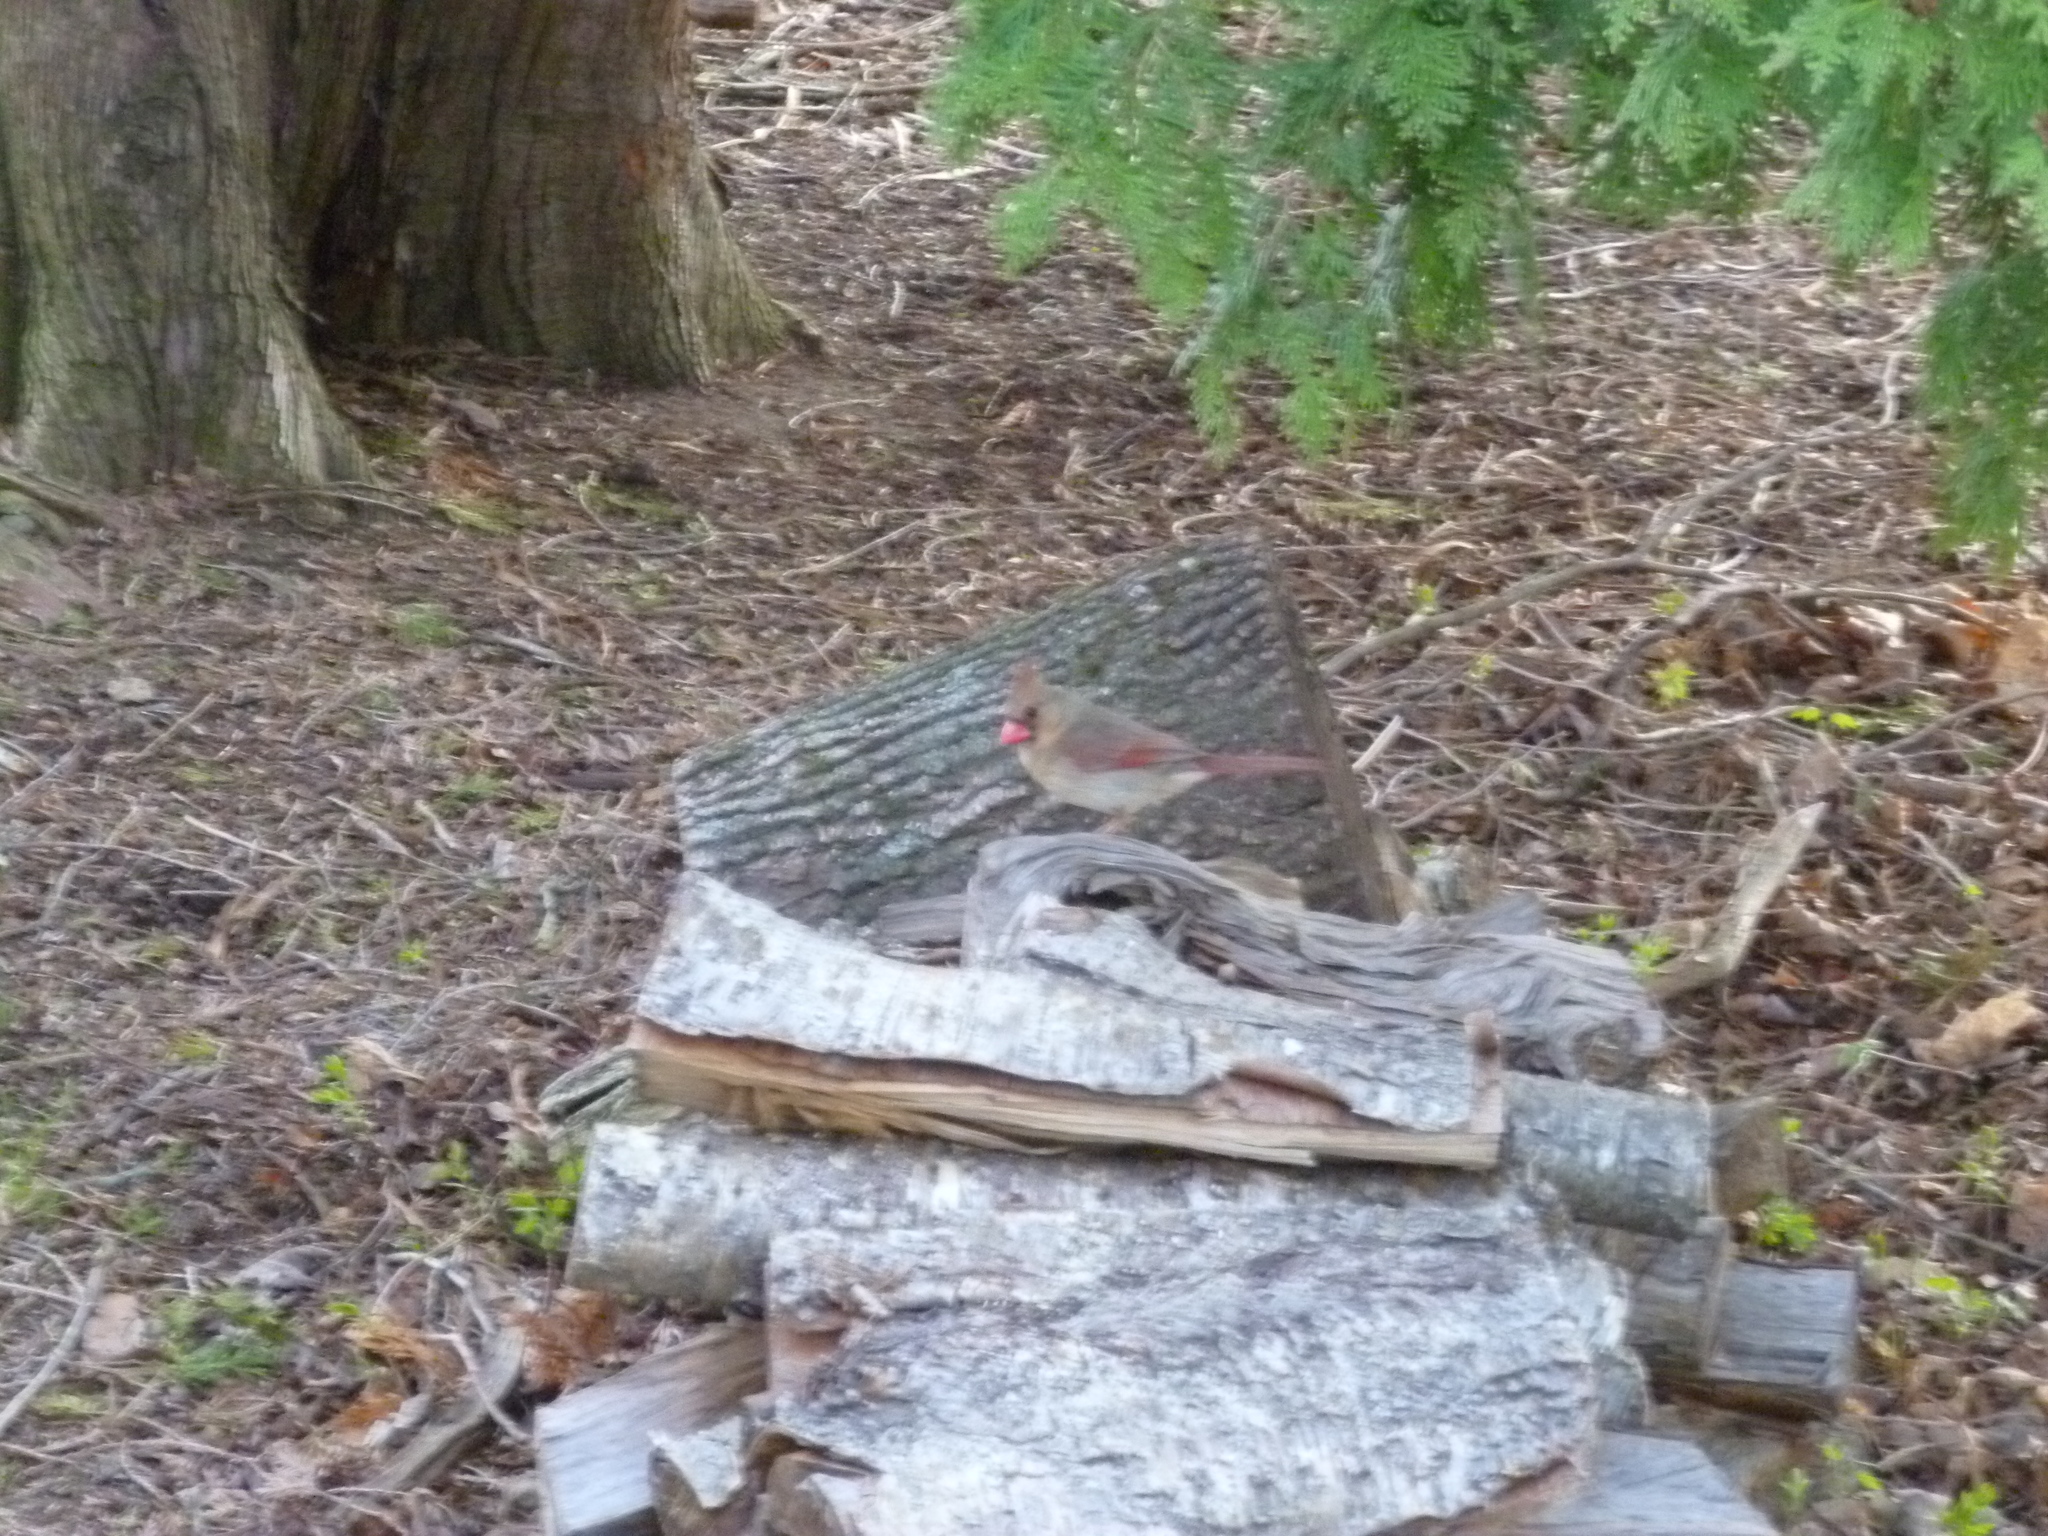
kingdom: Animalia
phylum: Chordata
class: Aves
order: Passeriformes
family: Cardinalidae
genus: Cardinalis
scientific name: Cardinalis cardinalis
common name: Northern cardinal
